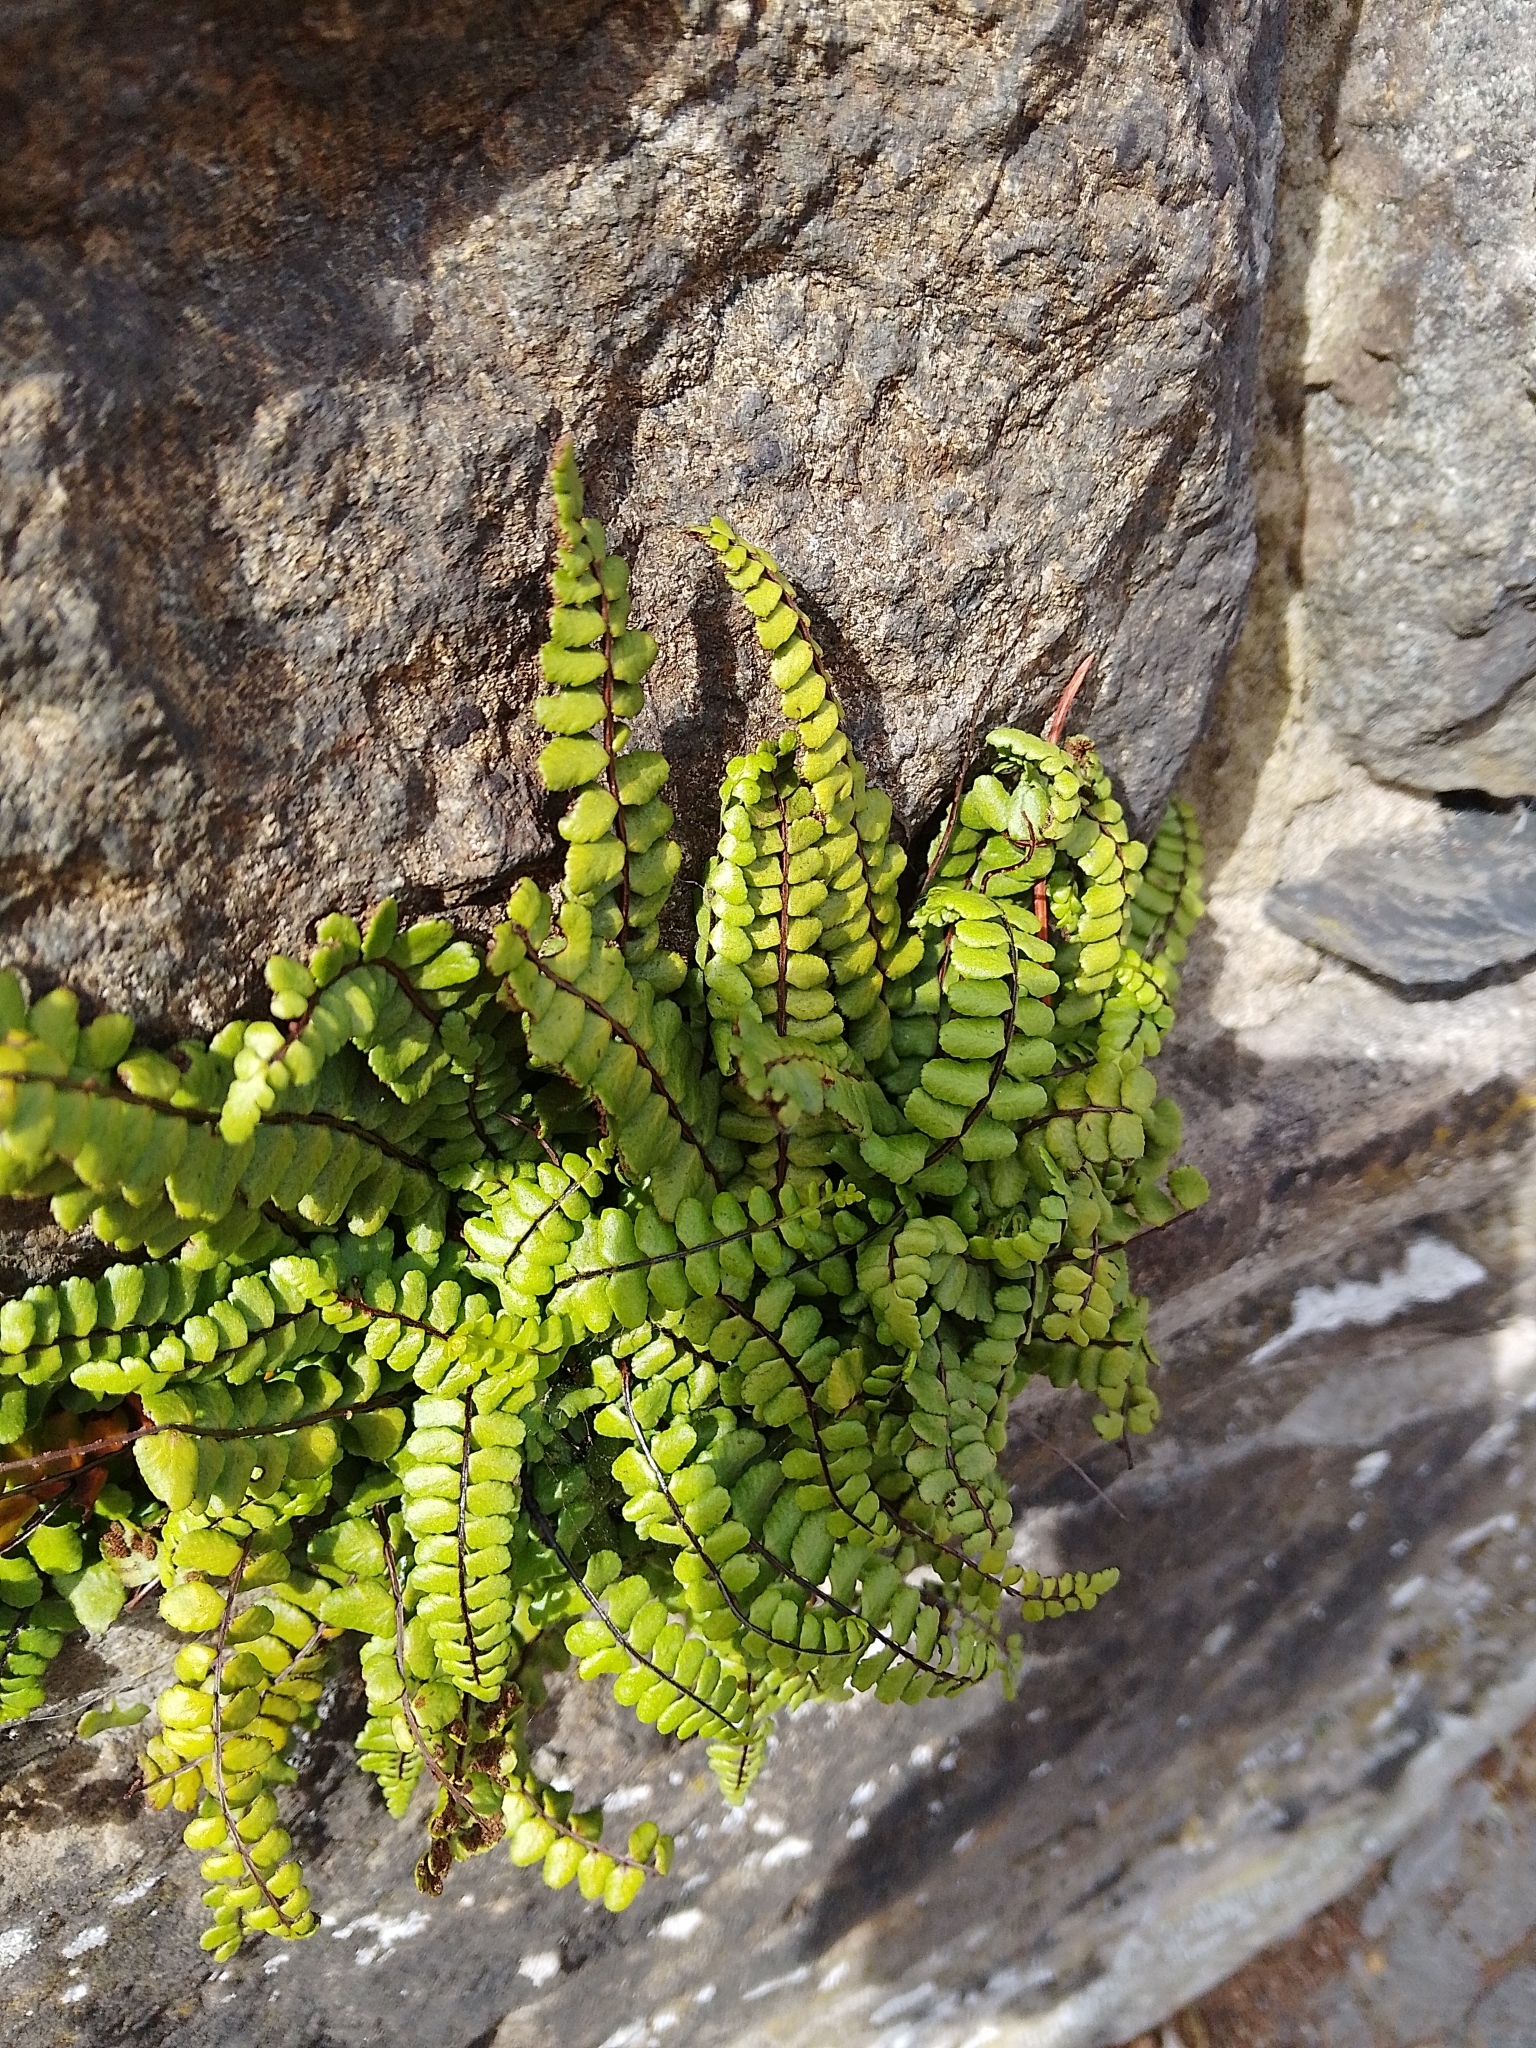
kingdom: Plantae
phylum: Tracheophyta
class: Polypodiopsida
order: Polypodiales
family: Aspleniaceae
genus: Asplenium
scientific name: Asplenium trichomanes
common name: Maidenhair spleenwort
